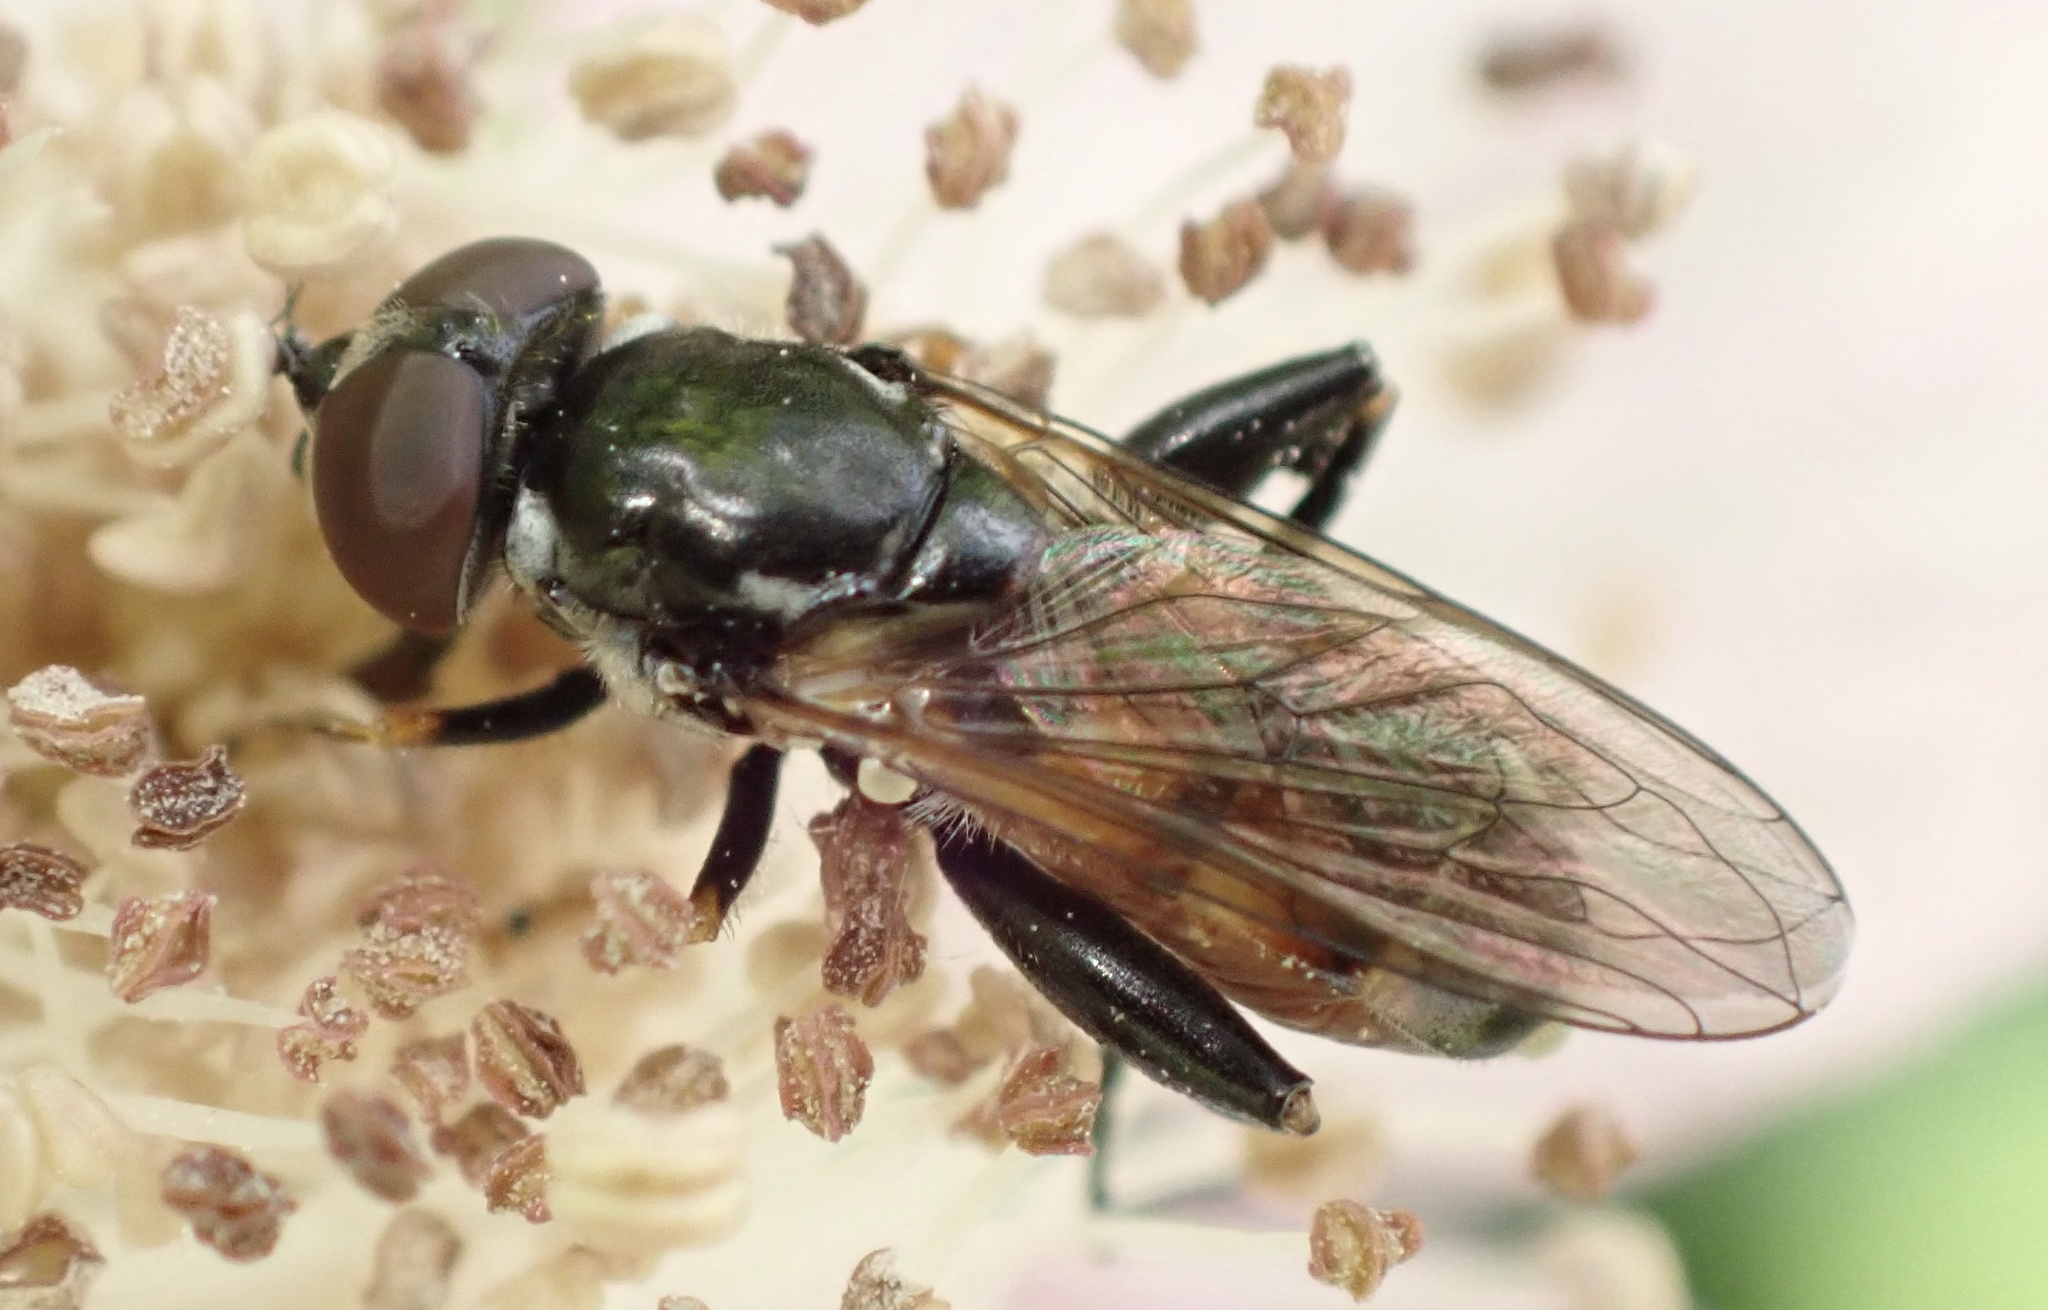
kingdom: Animalia
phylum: Arthropoda
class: Insecta
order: Diptera
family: Syrphidae
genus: Tropidia
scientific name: Tropidia scita
